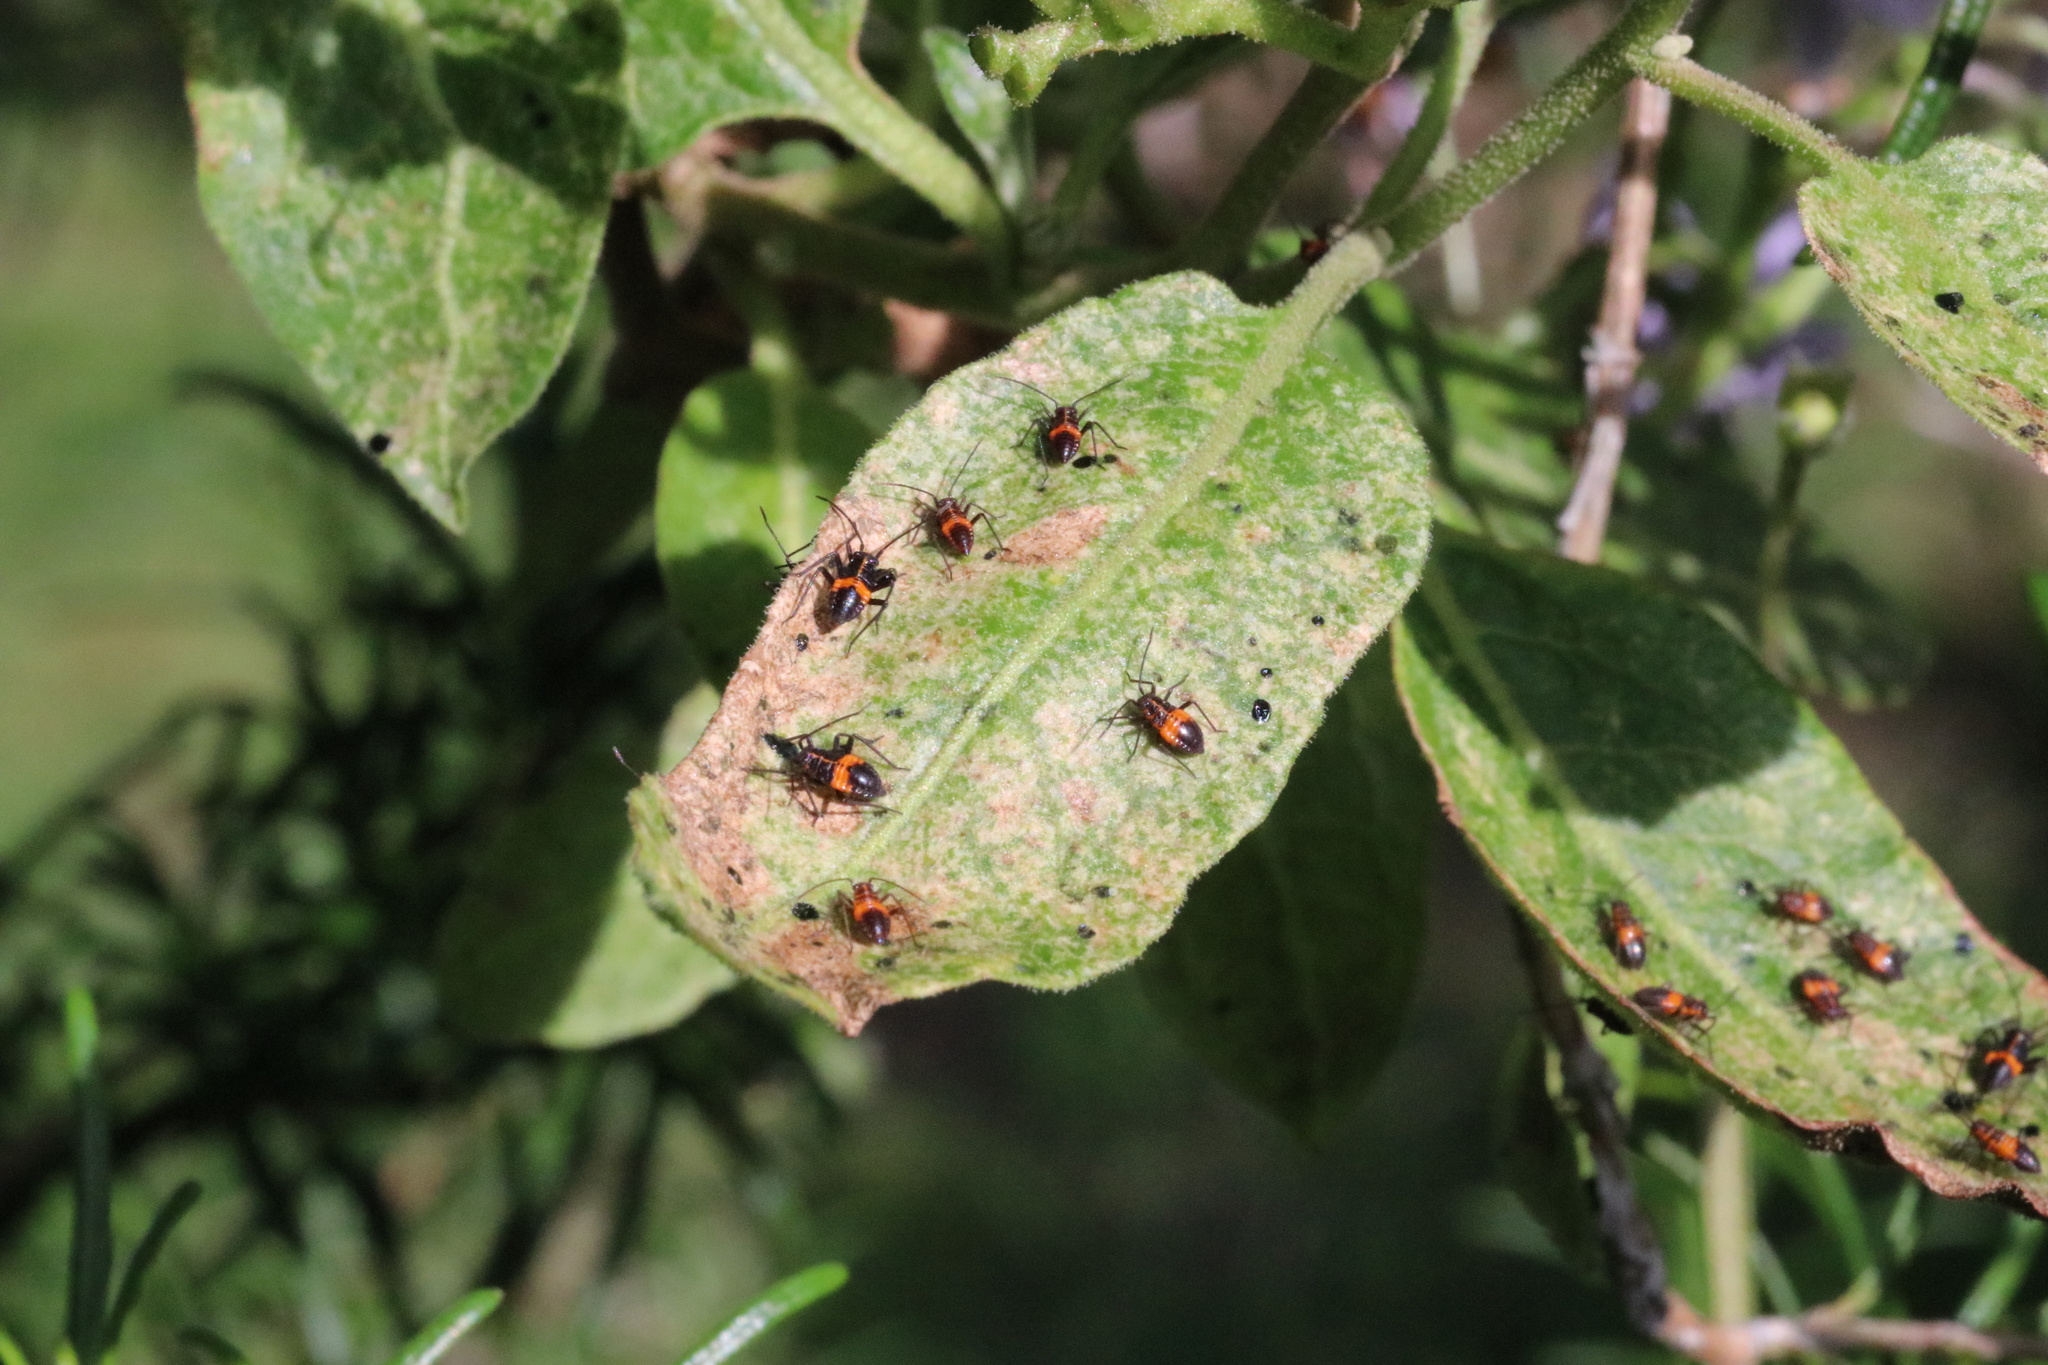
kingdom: Animalia
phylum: Arthropoda
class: Insecta
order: Hemiptera
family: Miridae
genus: Eurylomata
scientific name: Eurylomata picturata
